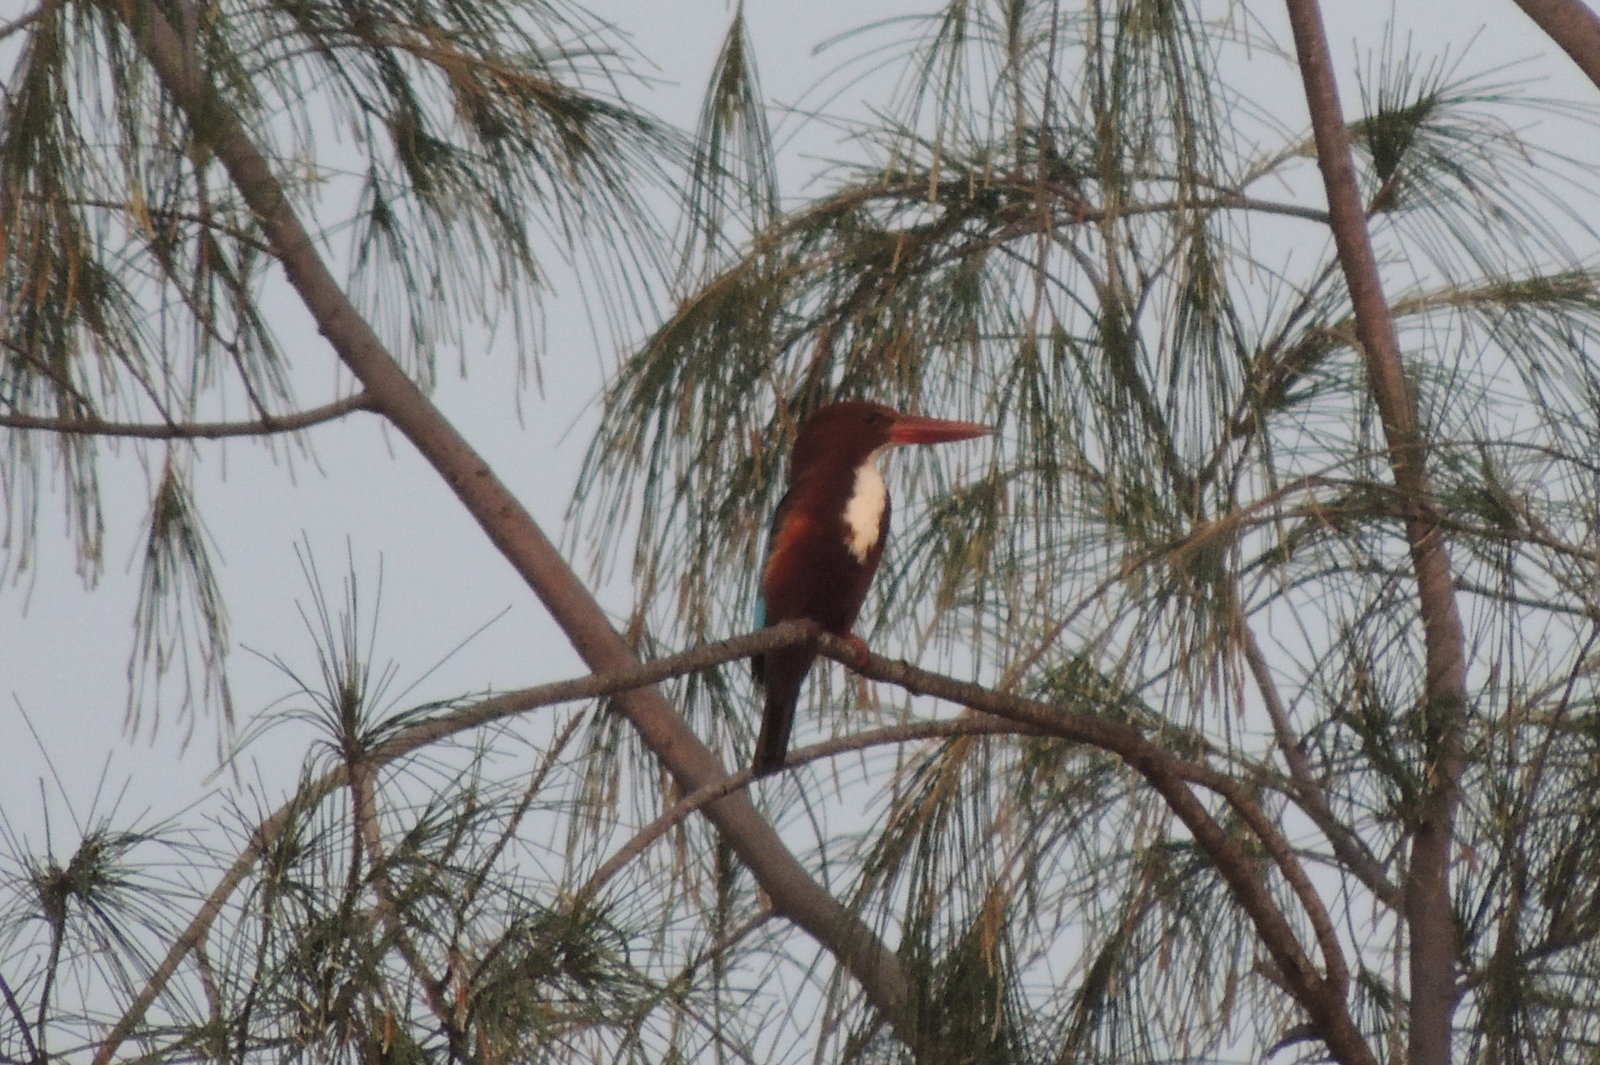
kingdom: Animalia
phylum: Chordata
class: Aves
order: Coraciiformes
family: Alcedinidae
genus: Halcyon
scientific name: Halcyon smyrnensis
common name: White-throated kingfisher
